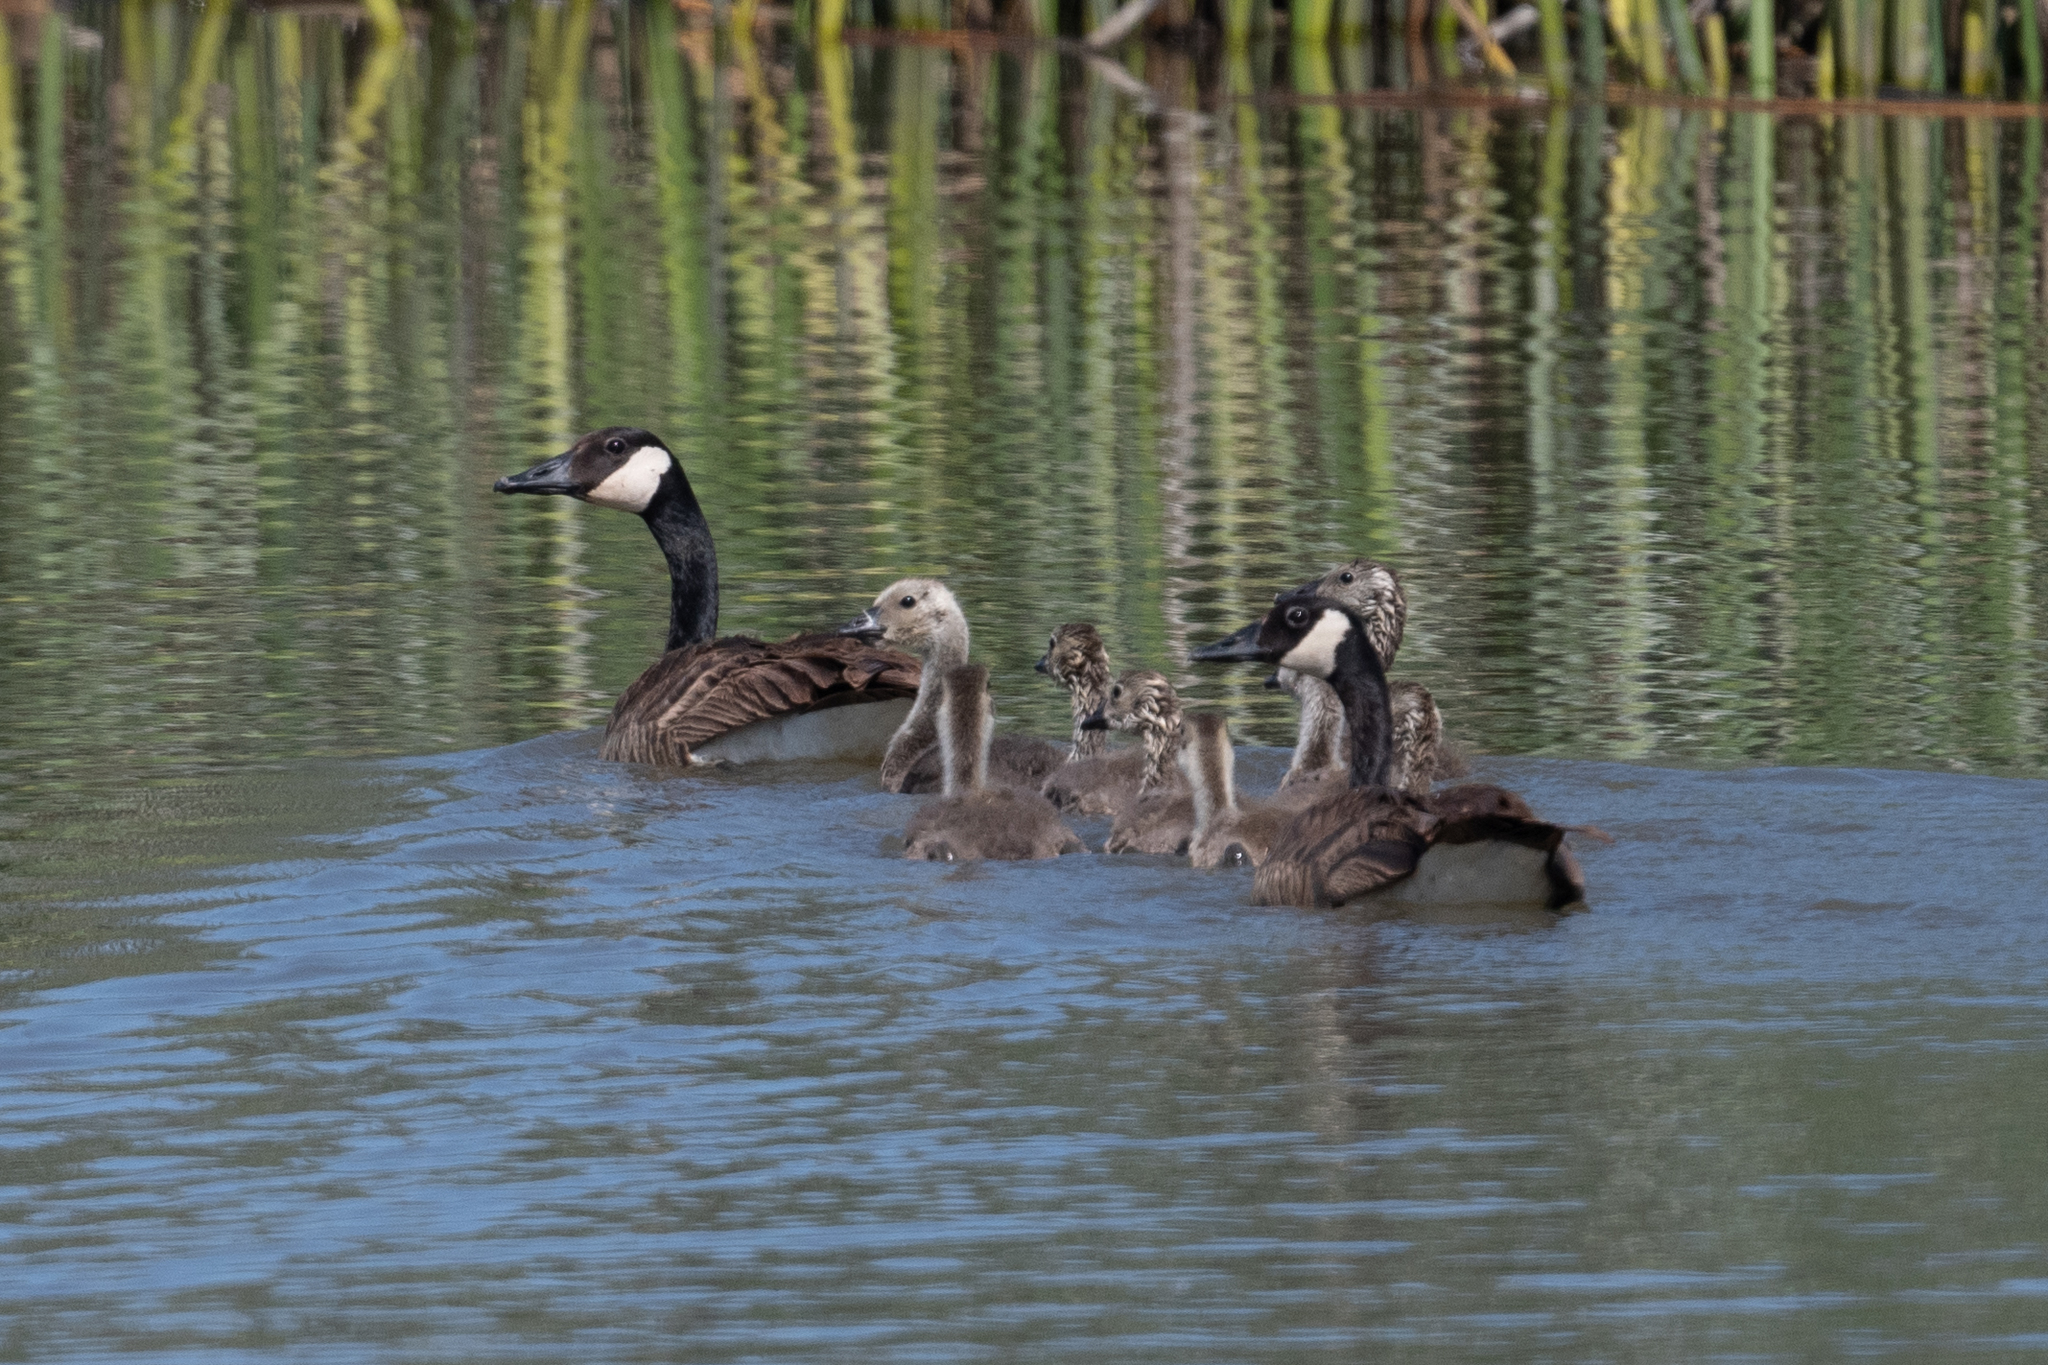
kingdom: Animalia
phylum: Chordata
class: Aves
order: Anseriformes
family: Anatidae
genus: Branta
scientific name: Branta canadensis
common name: Canada goose
